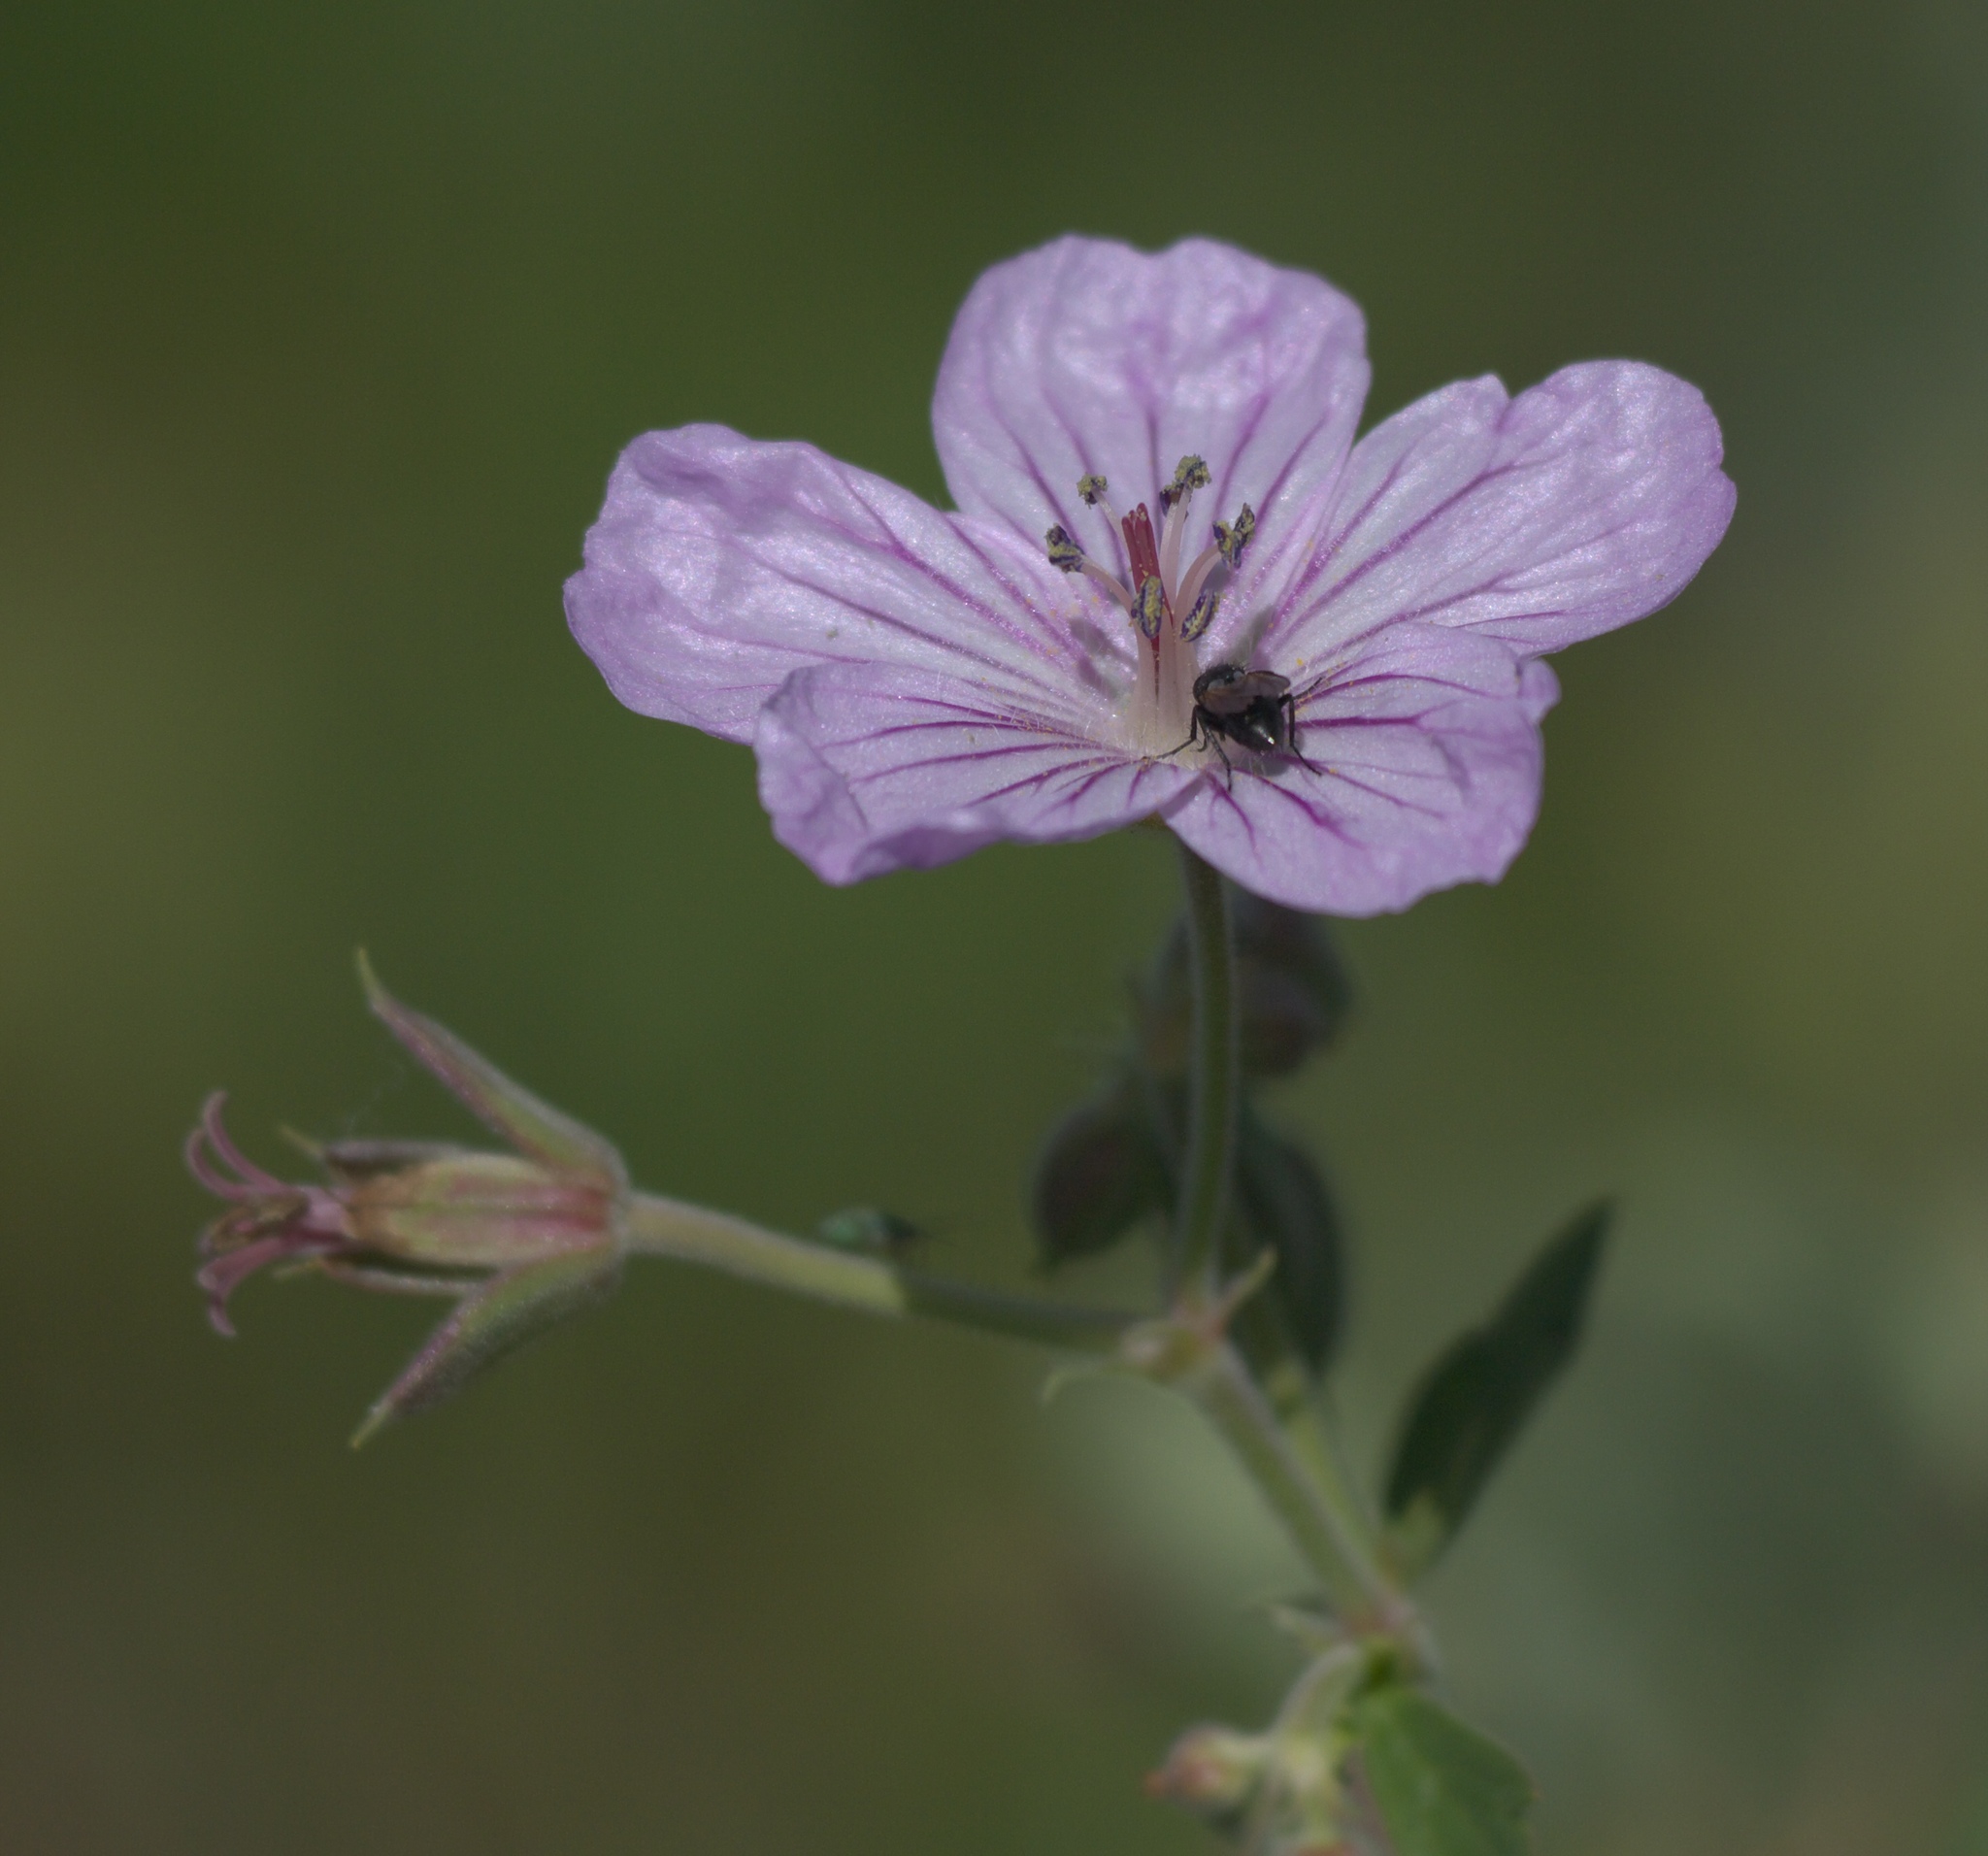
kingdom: Plantae
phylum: Tracheophyta
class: Magnoliopsida
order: Geraniales
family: Geraniaceae
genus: Geranium
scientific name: Geranium viscosissimum
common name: Purple geranium
